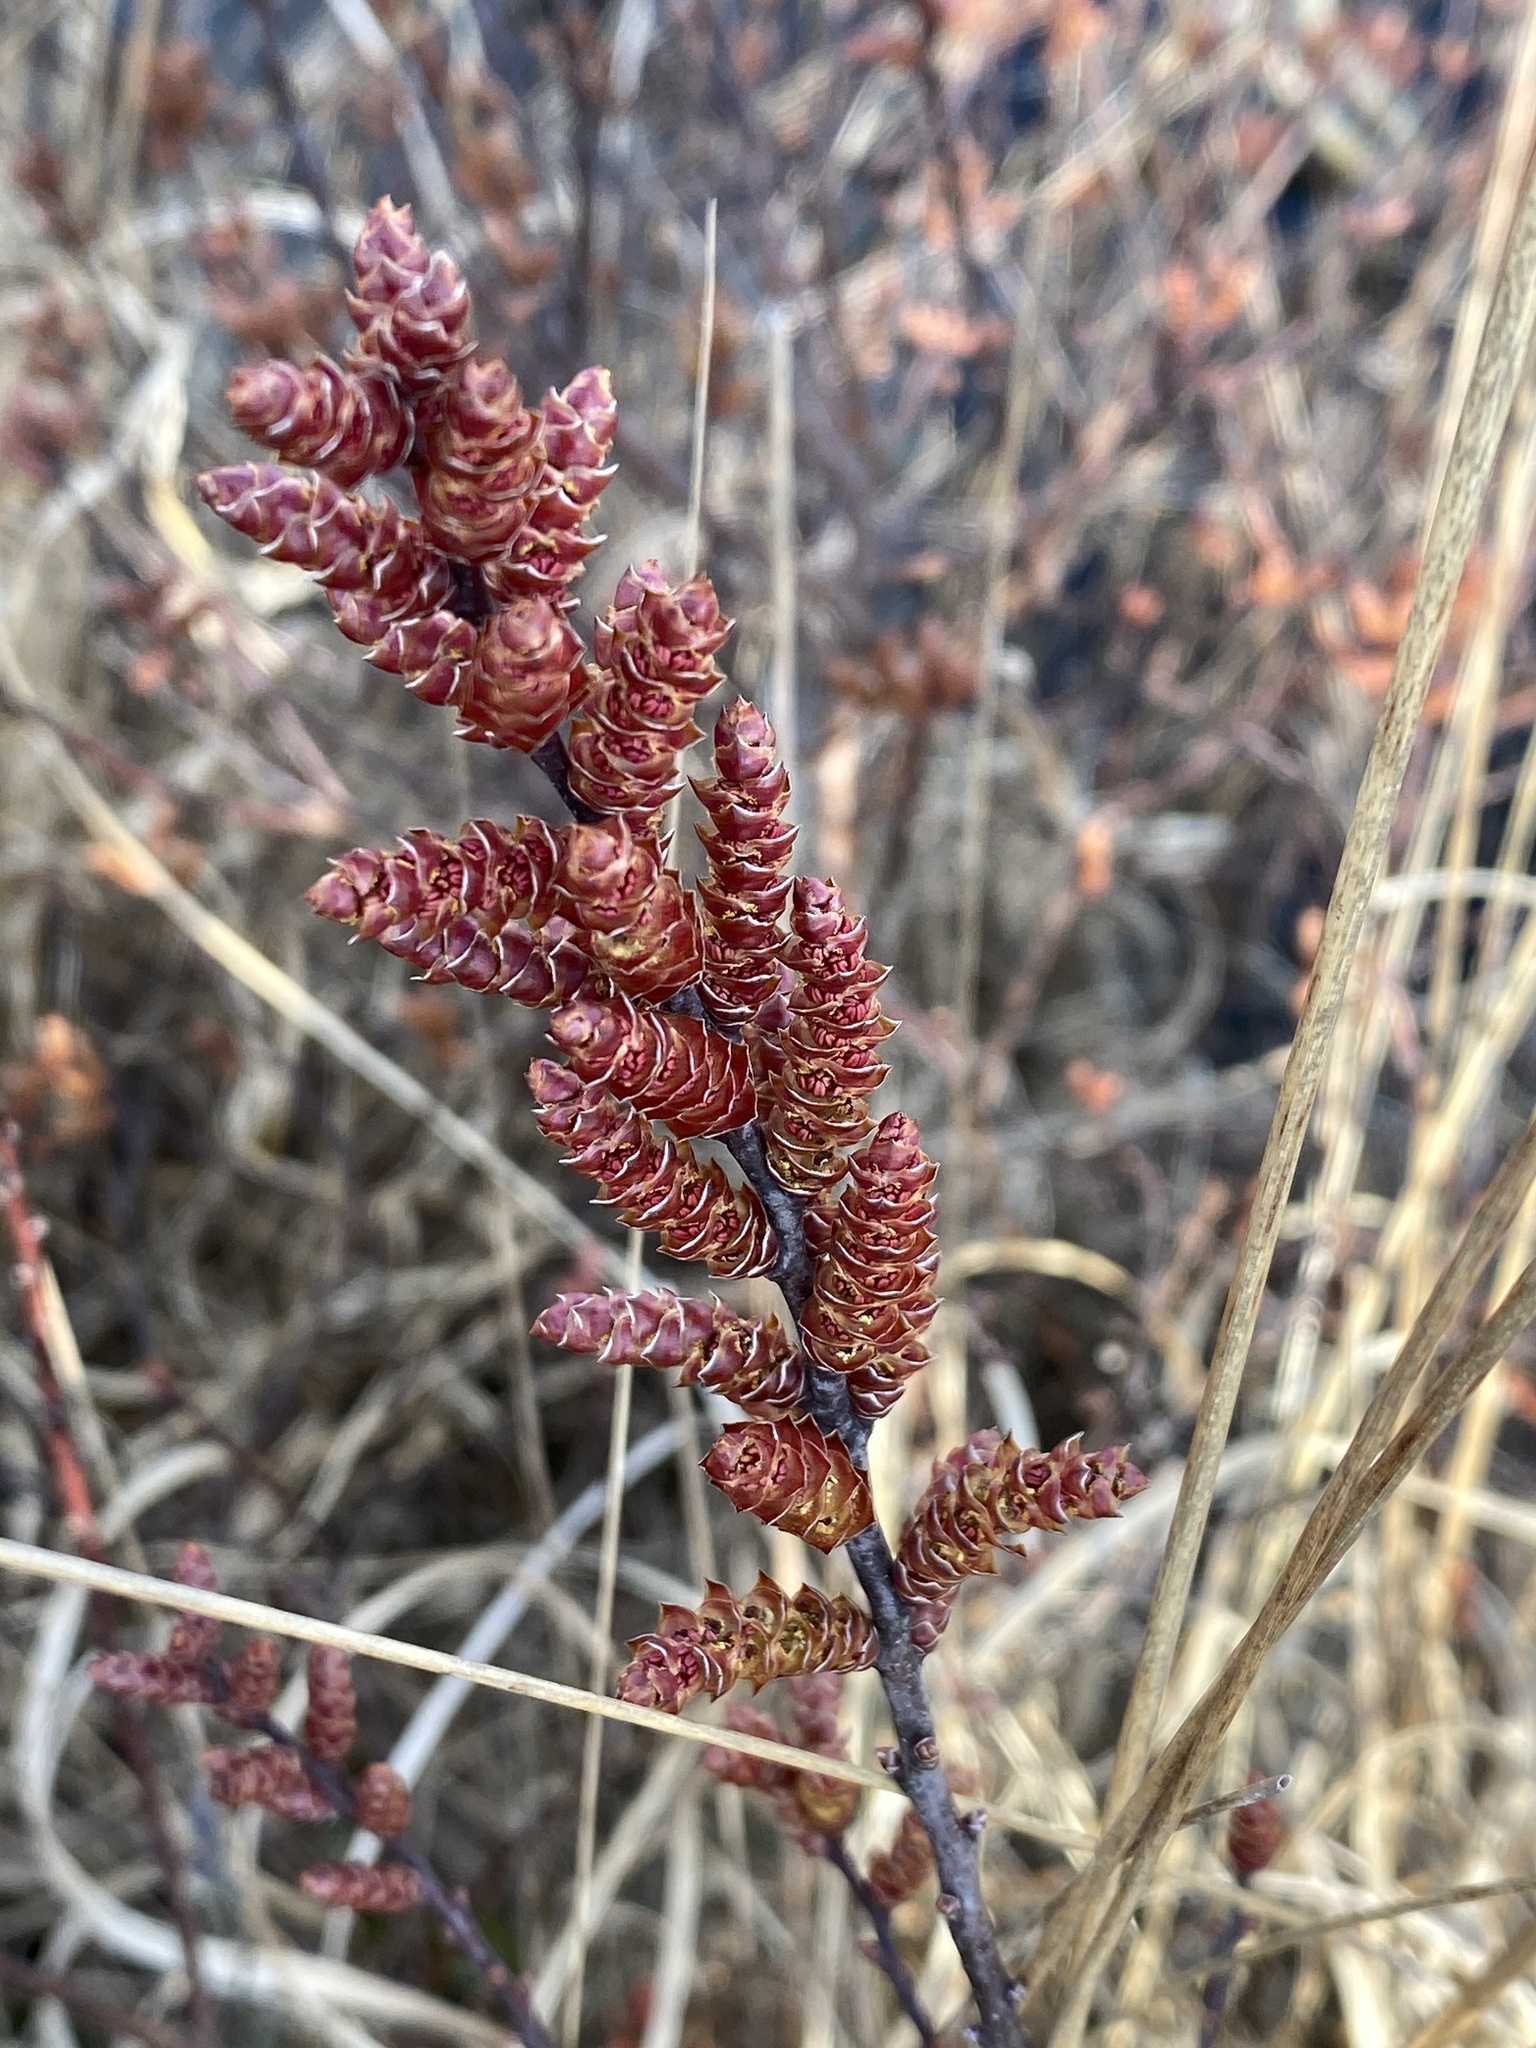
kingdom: Plantae
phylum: Tracheophyta
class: Magnoliopsida
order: Fagales
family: Myricaceae
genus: Myrica
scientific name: Myrica gale
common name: Sweet gale
